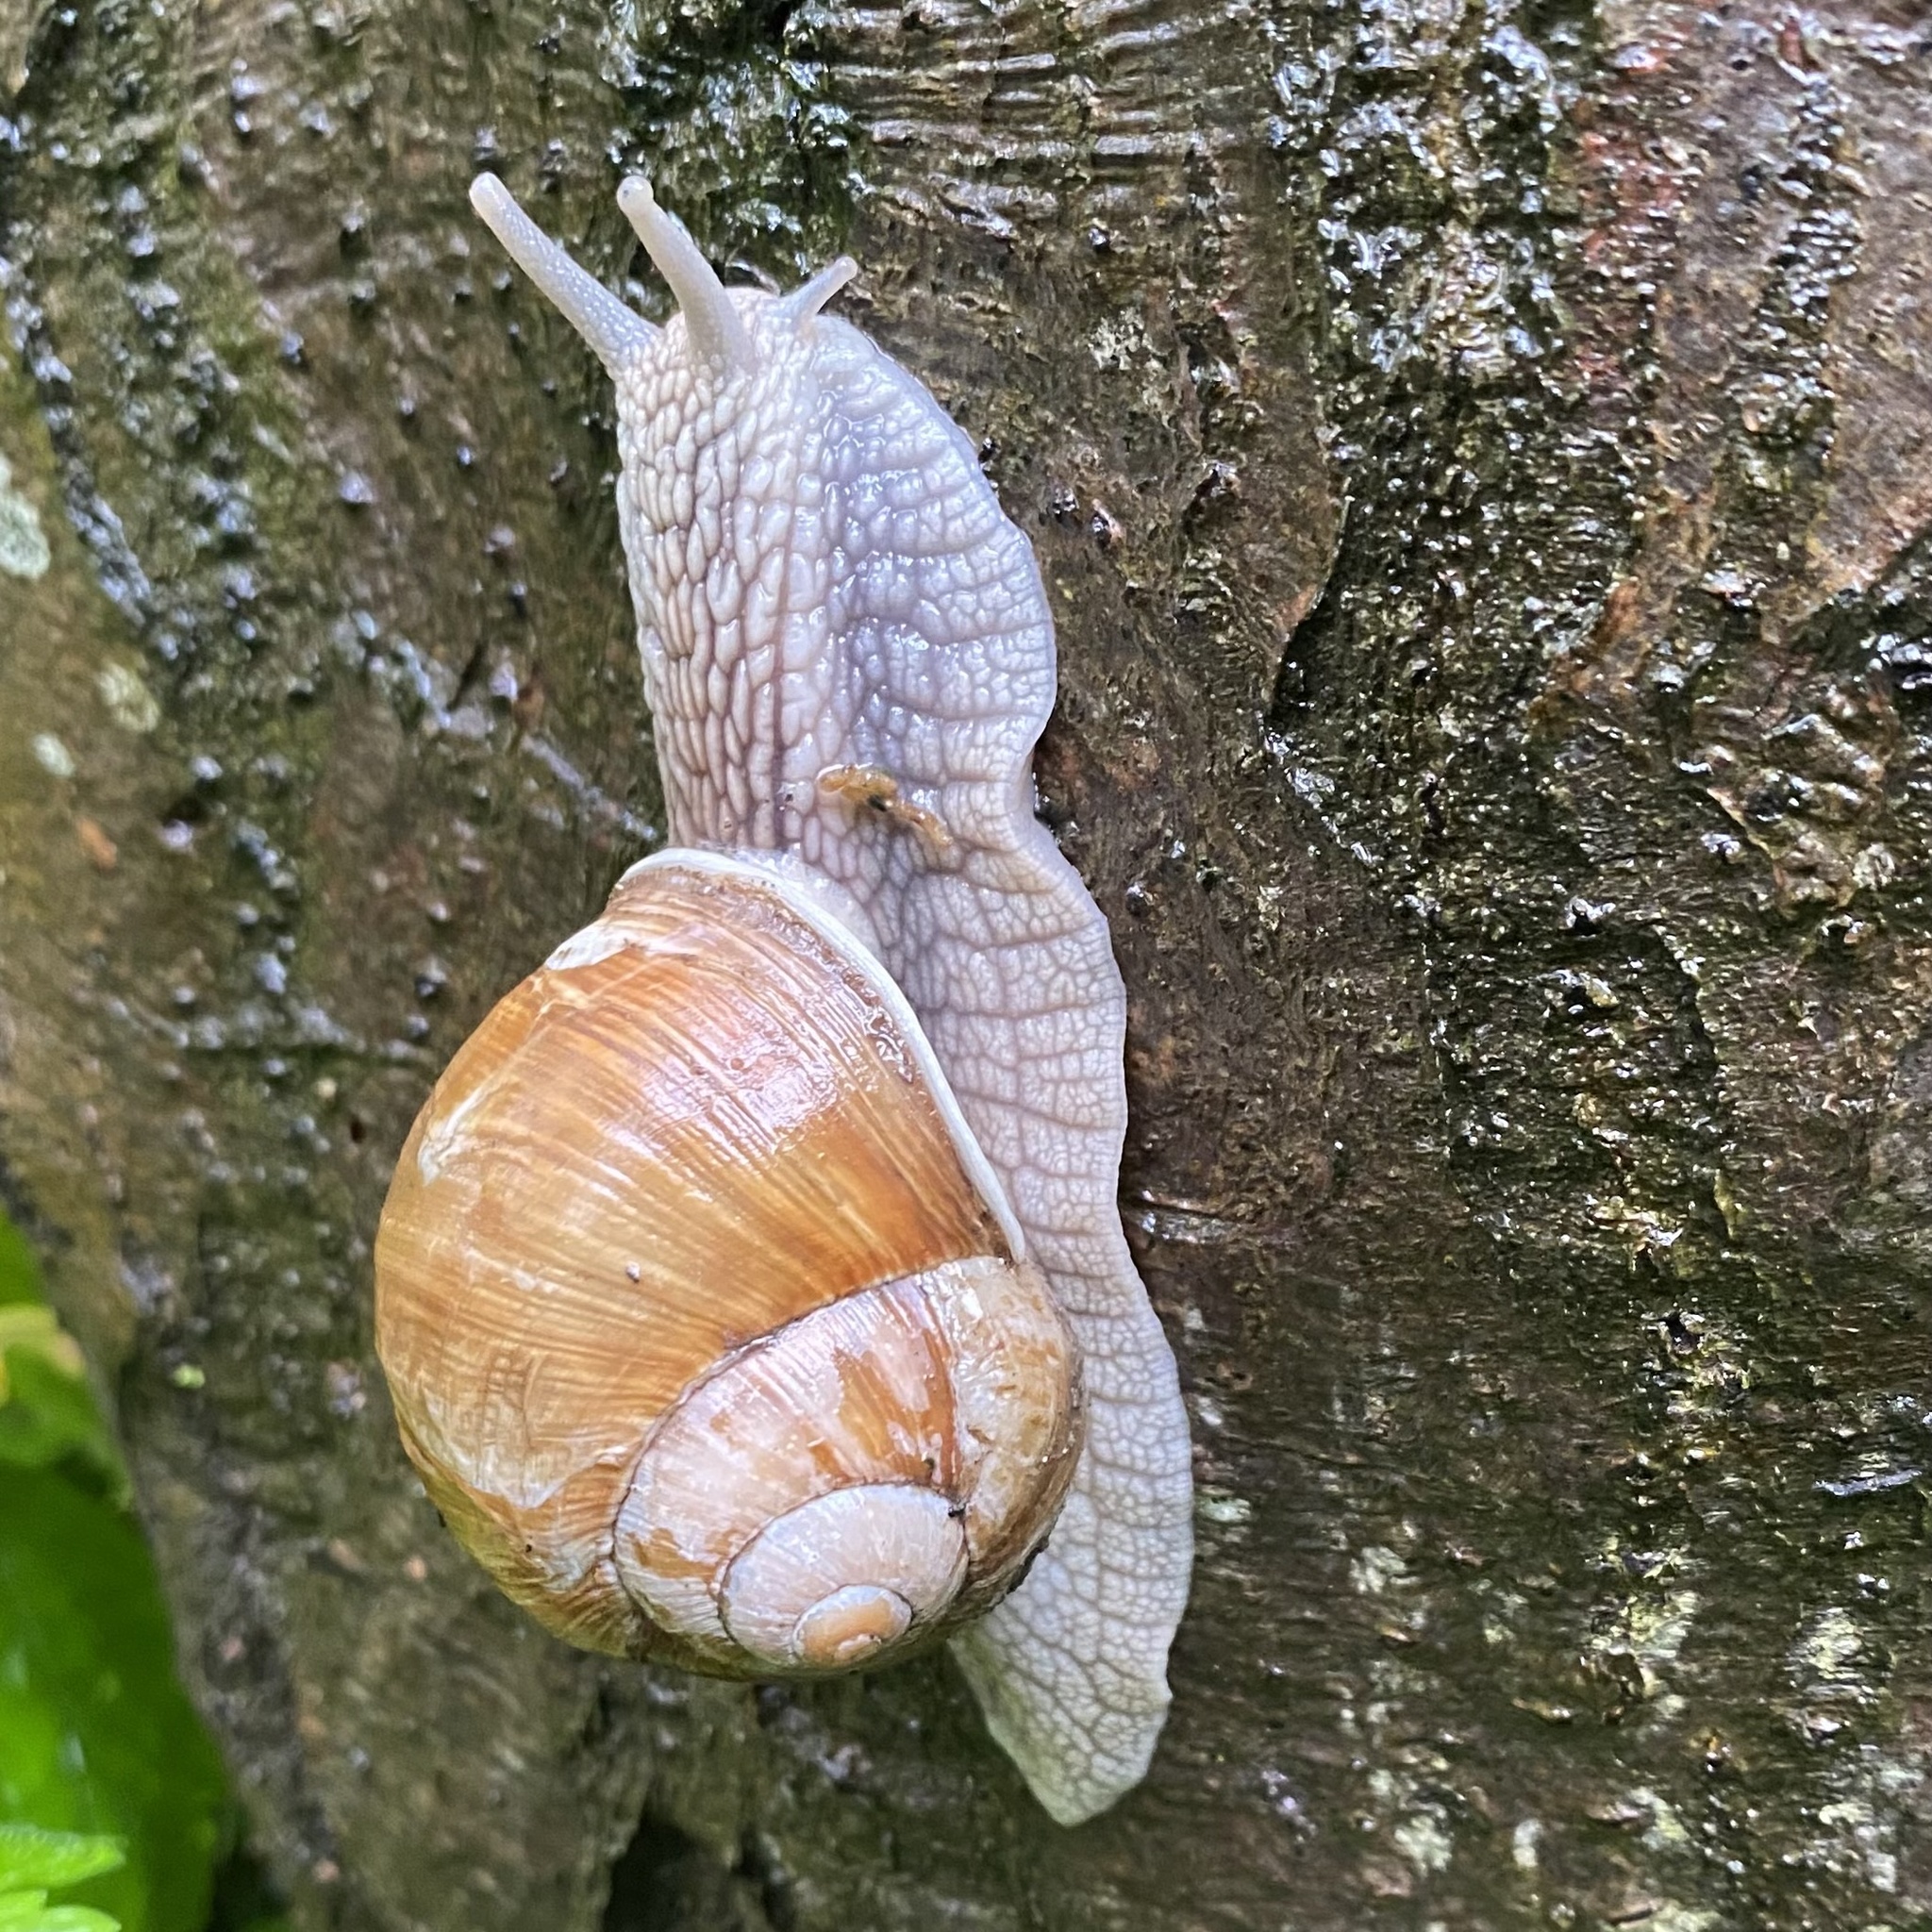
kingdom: Animalia
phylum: Mollusca
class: Gastropoda
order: Stylommatophora
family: Helicidae
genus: Helix
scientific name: Helix pomatia
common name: Roman snail
